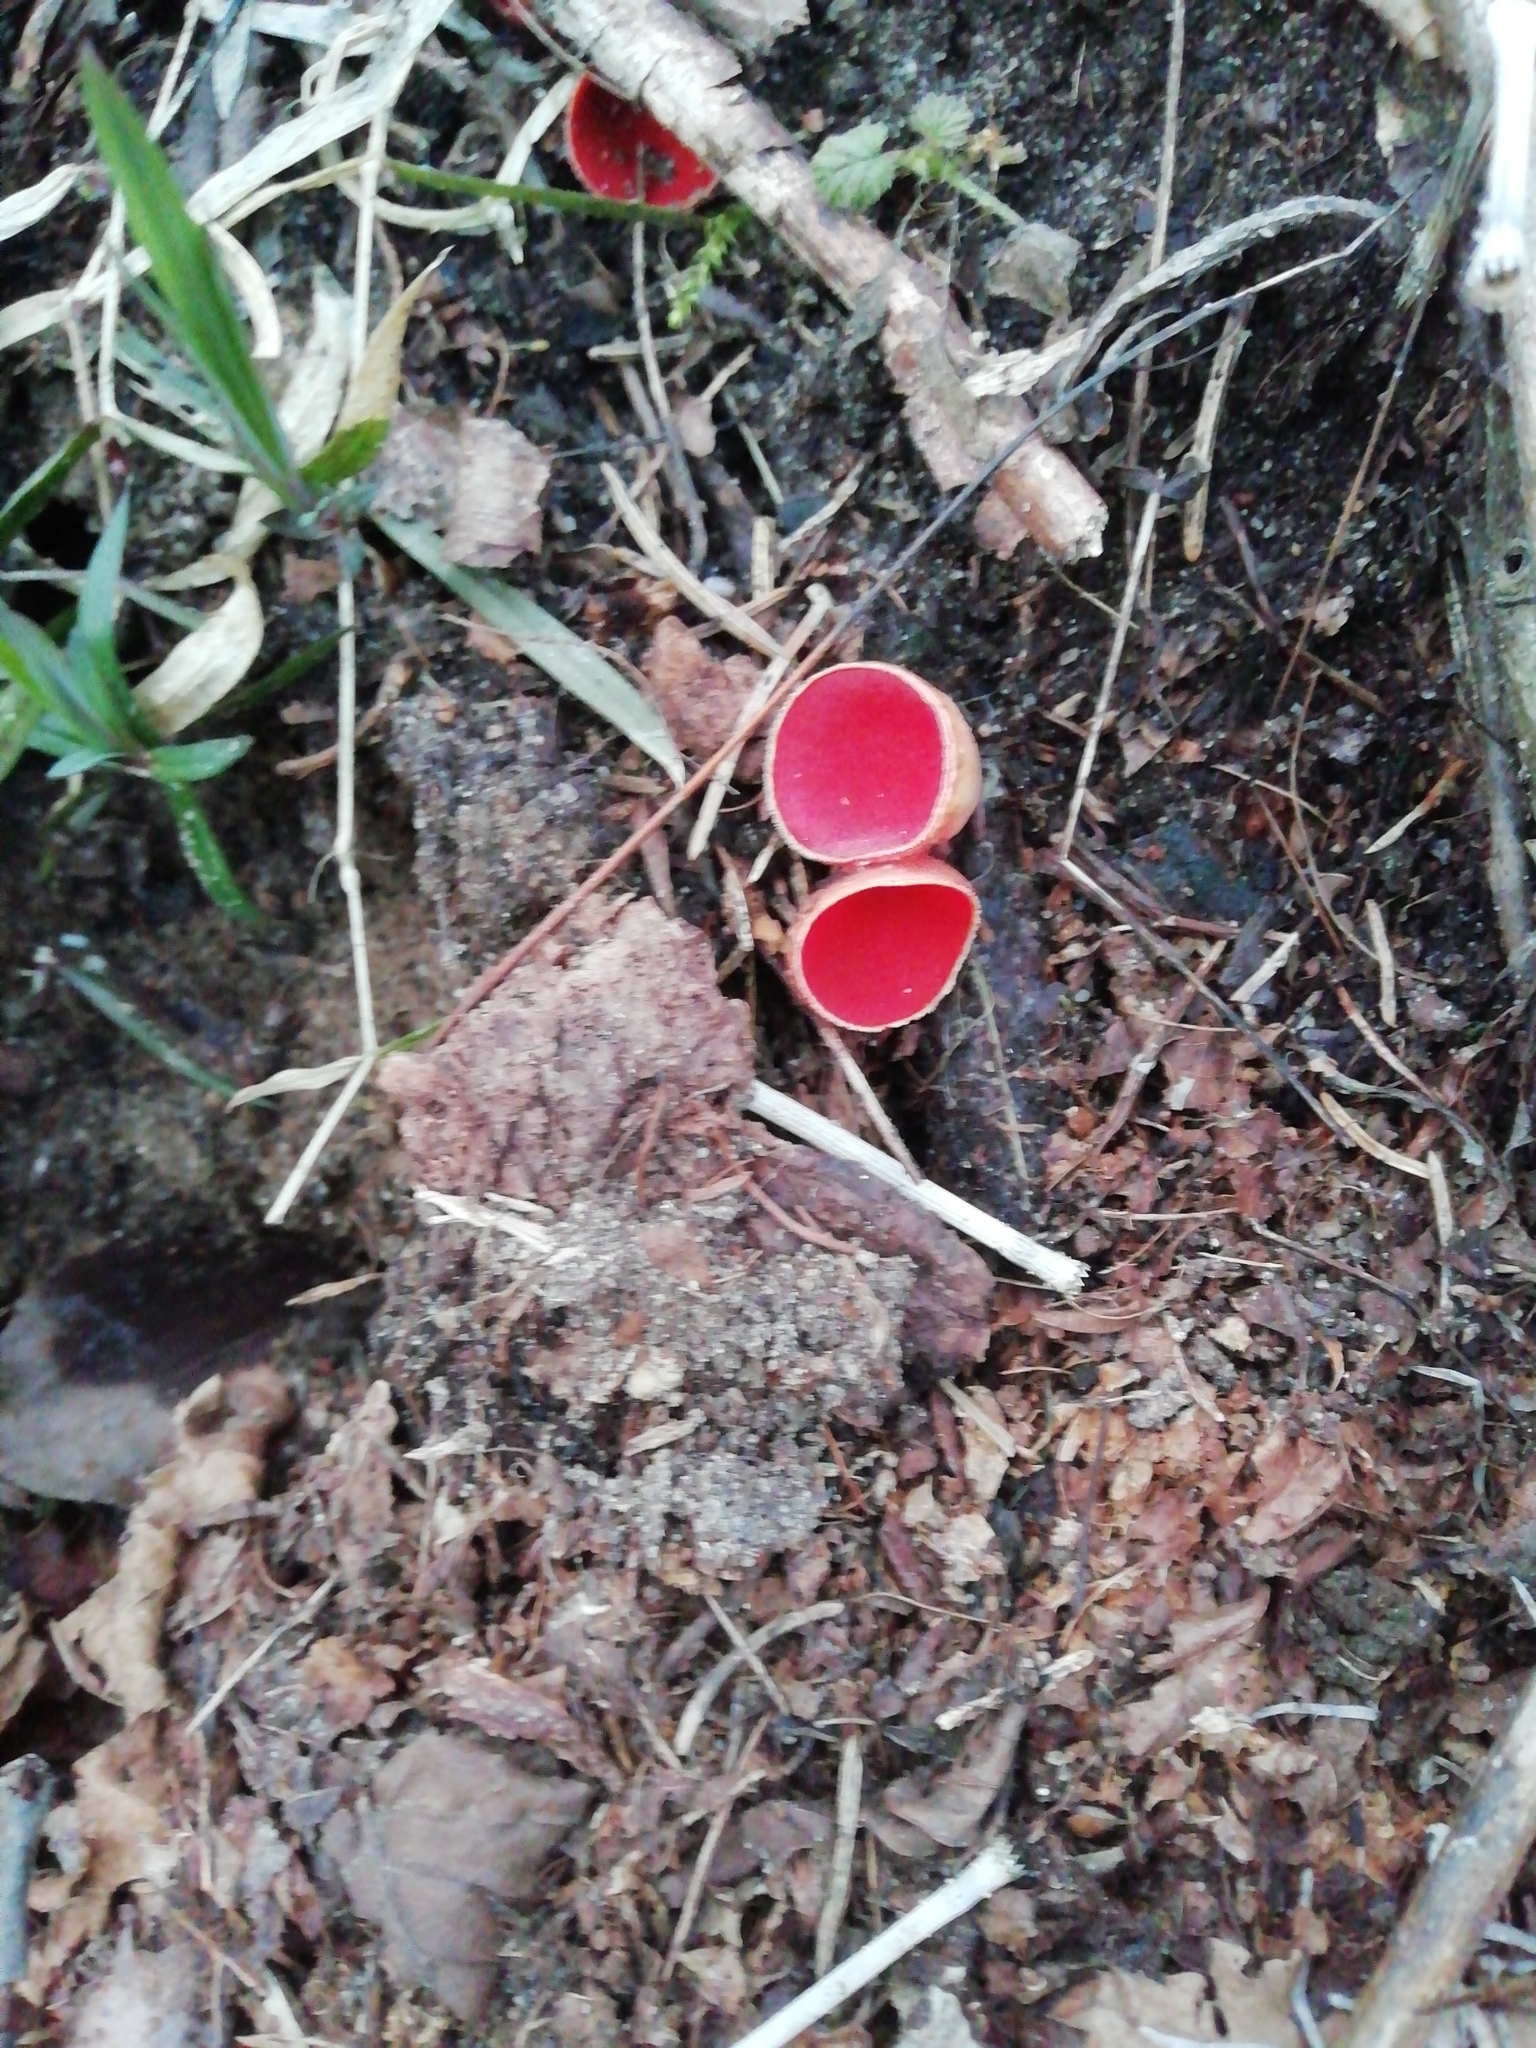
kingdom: Fungi
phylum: Ascomycota
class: Pezizomycetes
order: Pezizales
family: Sarcoscyphaceae
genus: Sarcoscypha
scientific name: Sarcoscypha austriaca
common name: Scarlet elfcup
